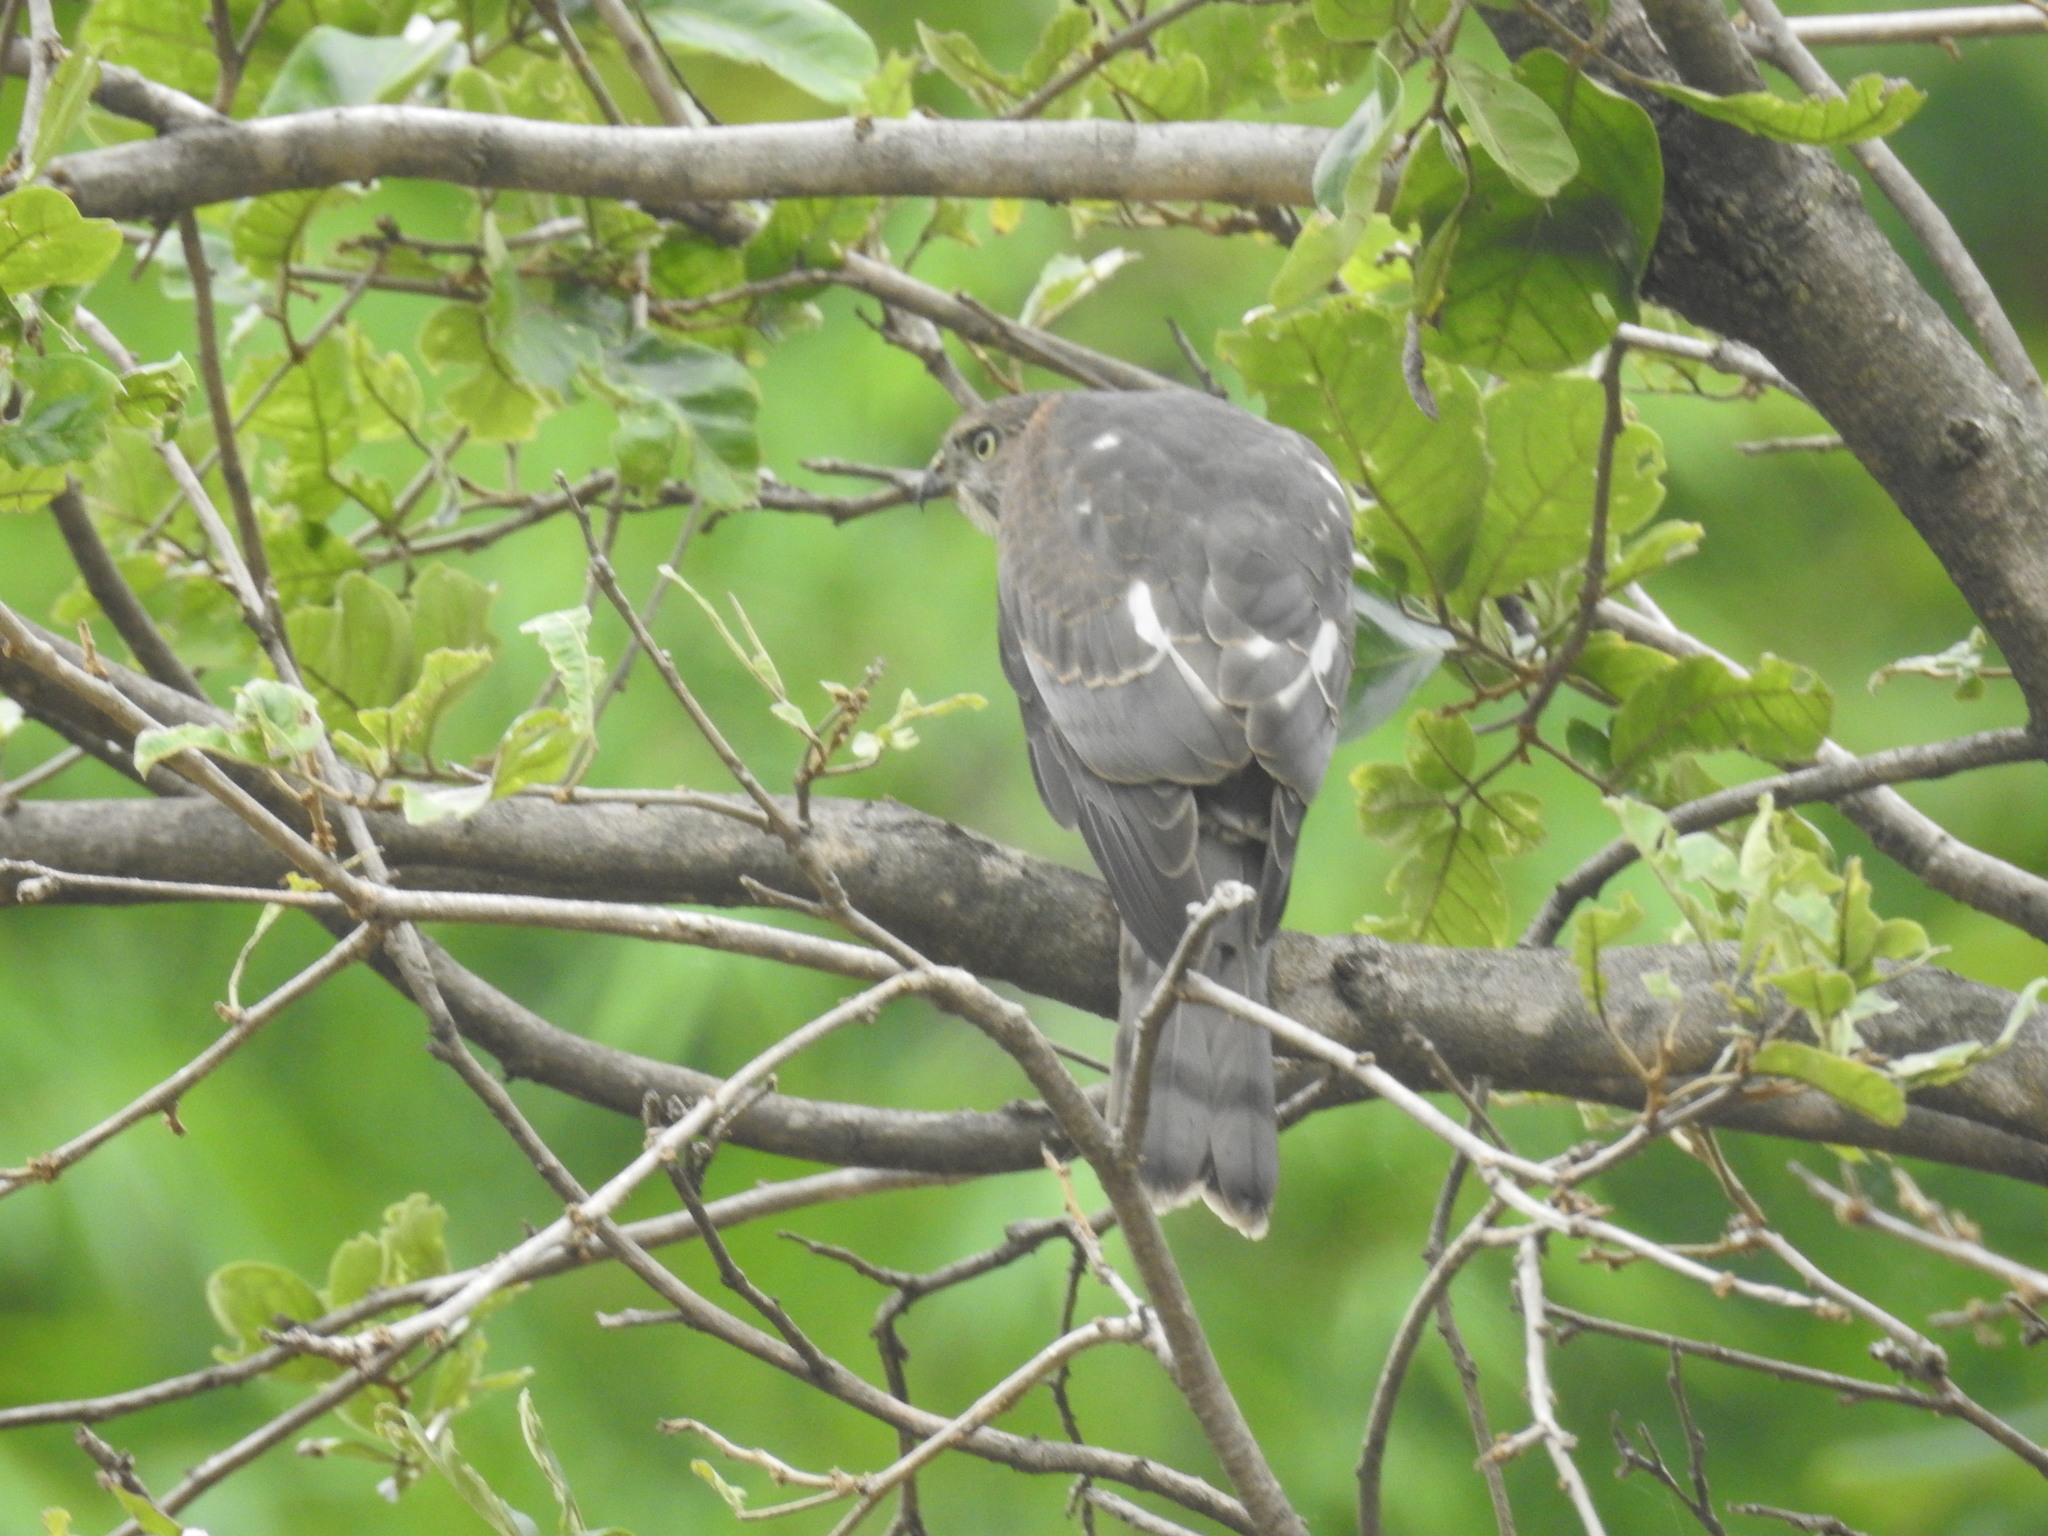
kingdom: Animalia
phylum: Chordata
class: Aves
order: Accipitriformes
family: Accipitridae
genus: Accipiter
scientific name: Accipiter badius
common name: Shikra
